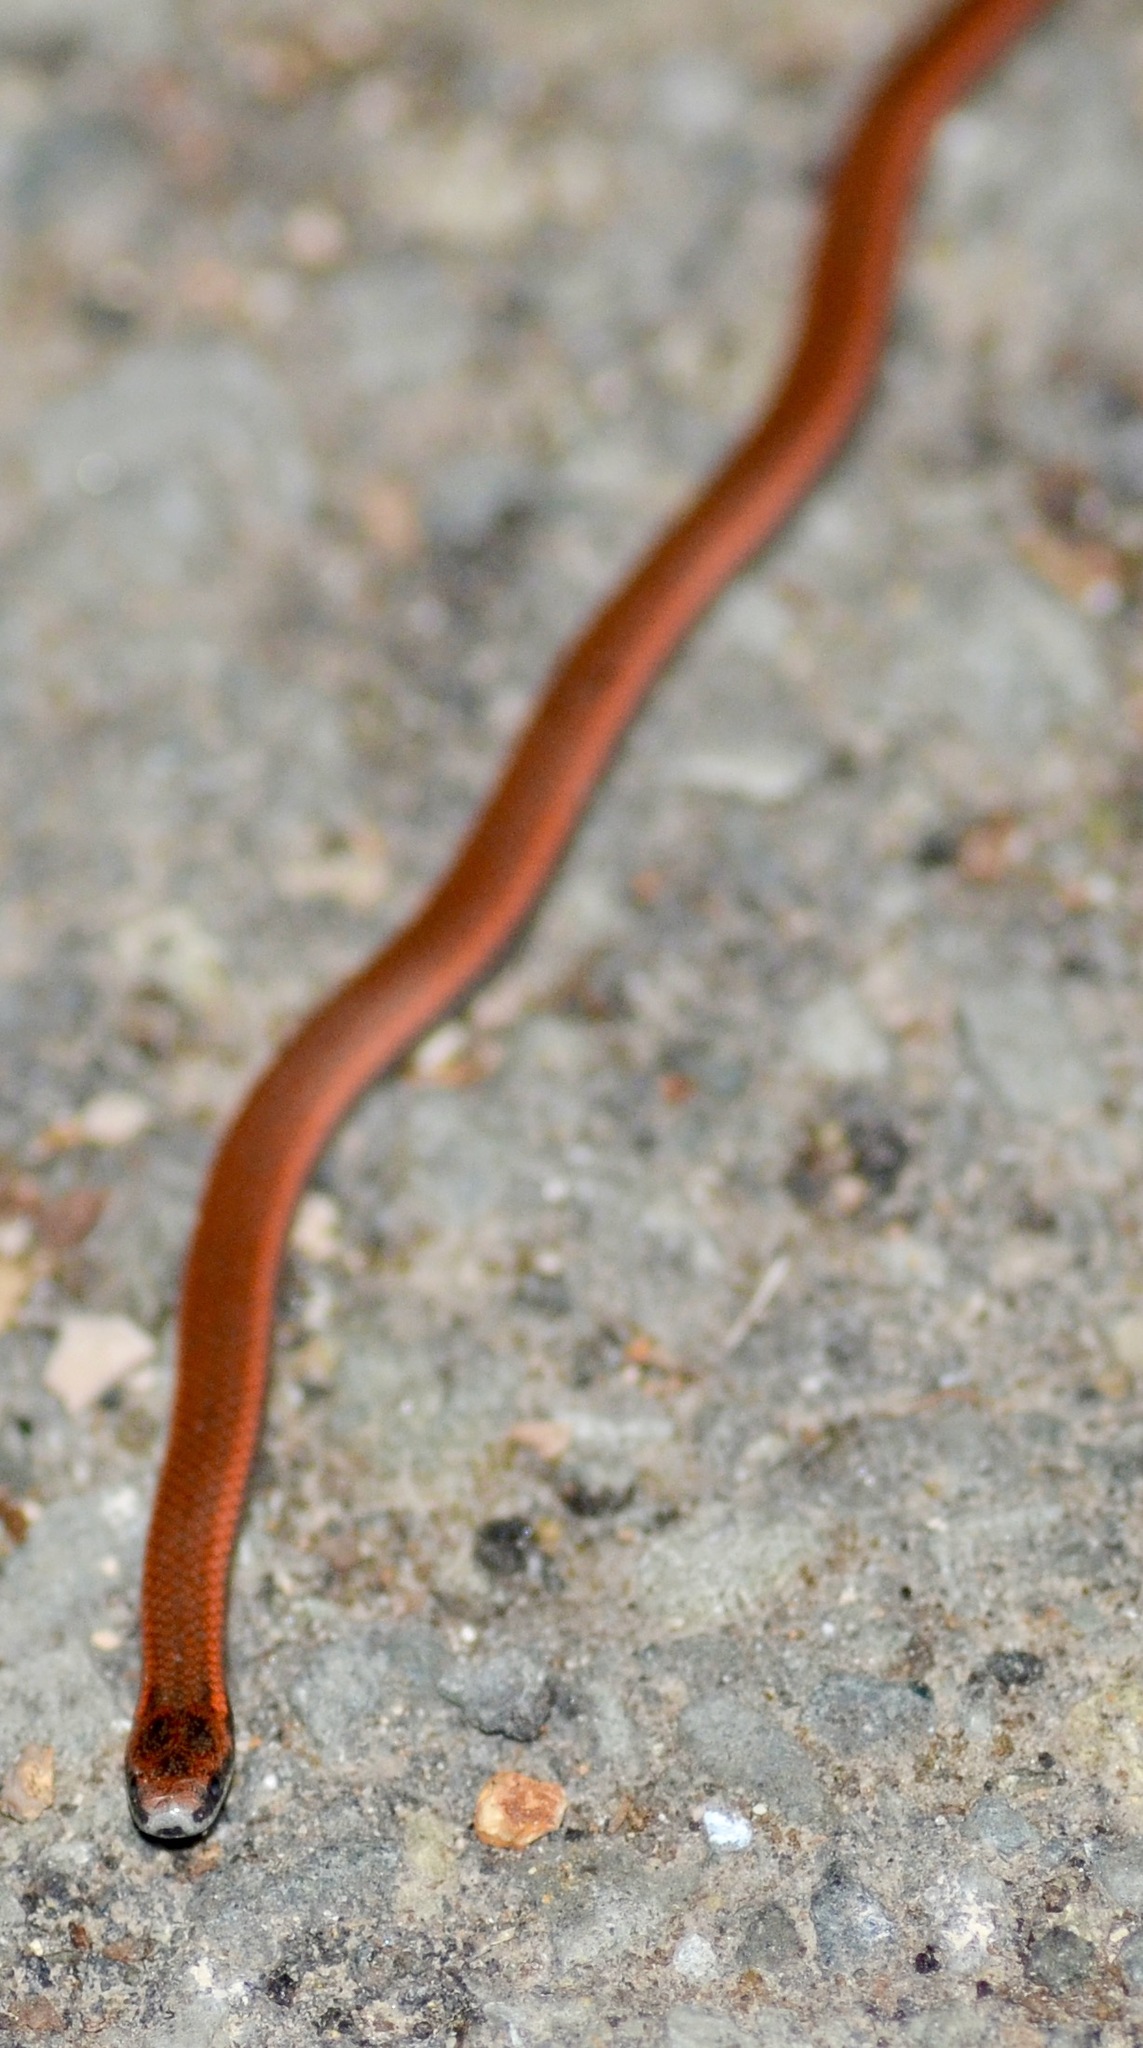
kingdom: Animalia
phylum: Chordata
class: Squamata
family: Colubridae
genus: Contia
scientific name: Contia tenuis
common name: Sharptail snake
